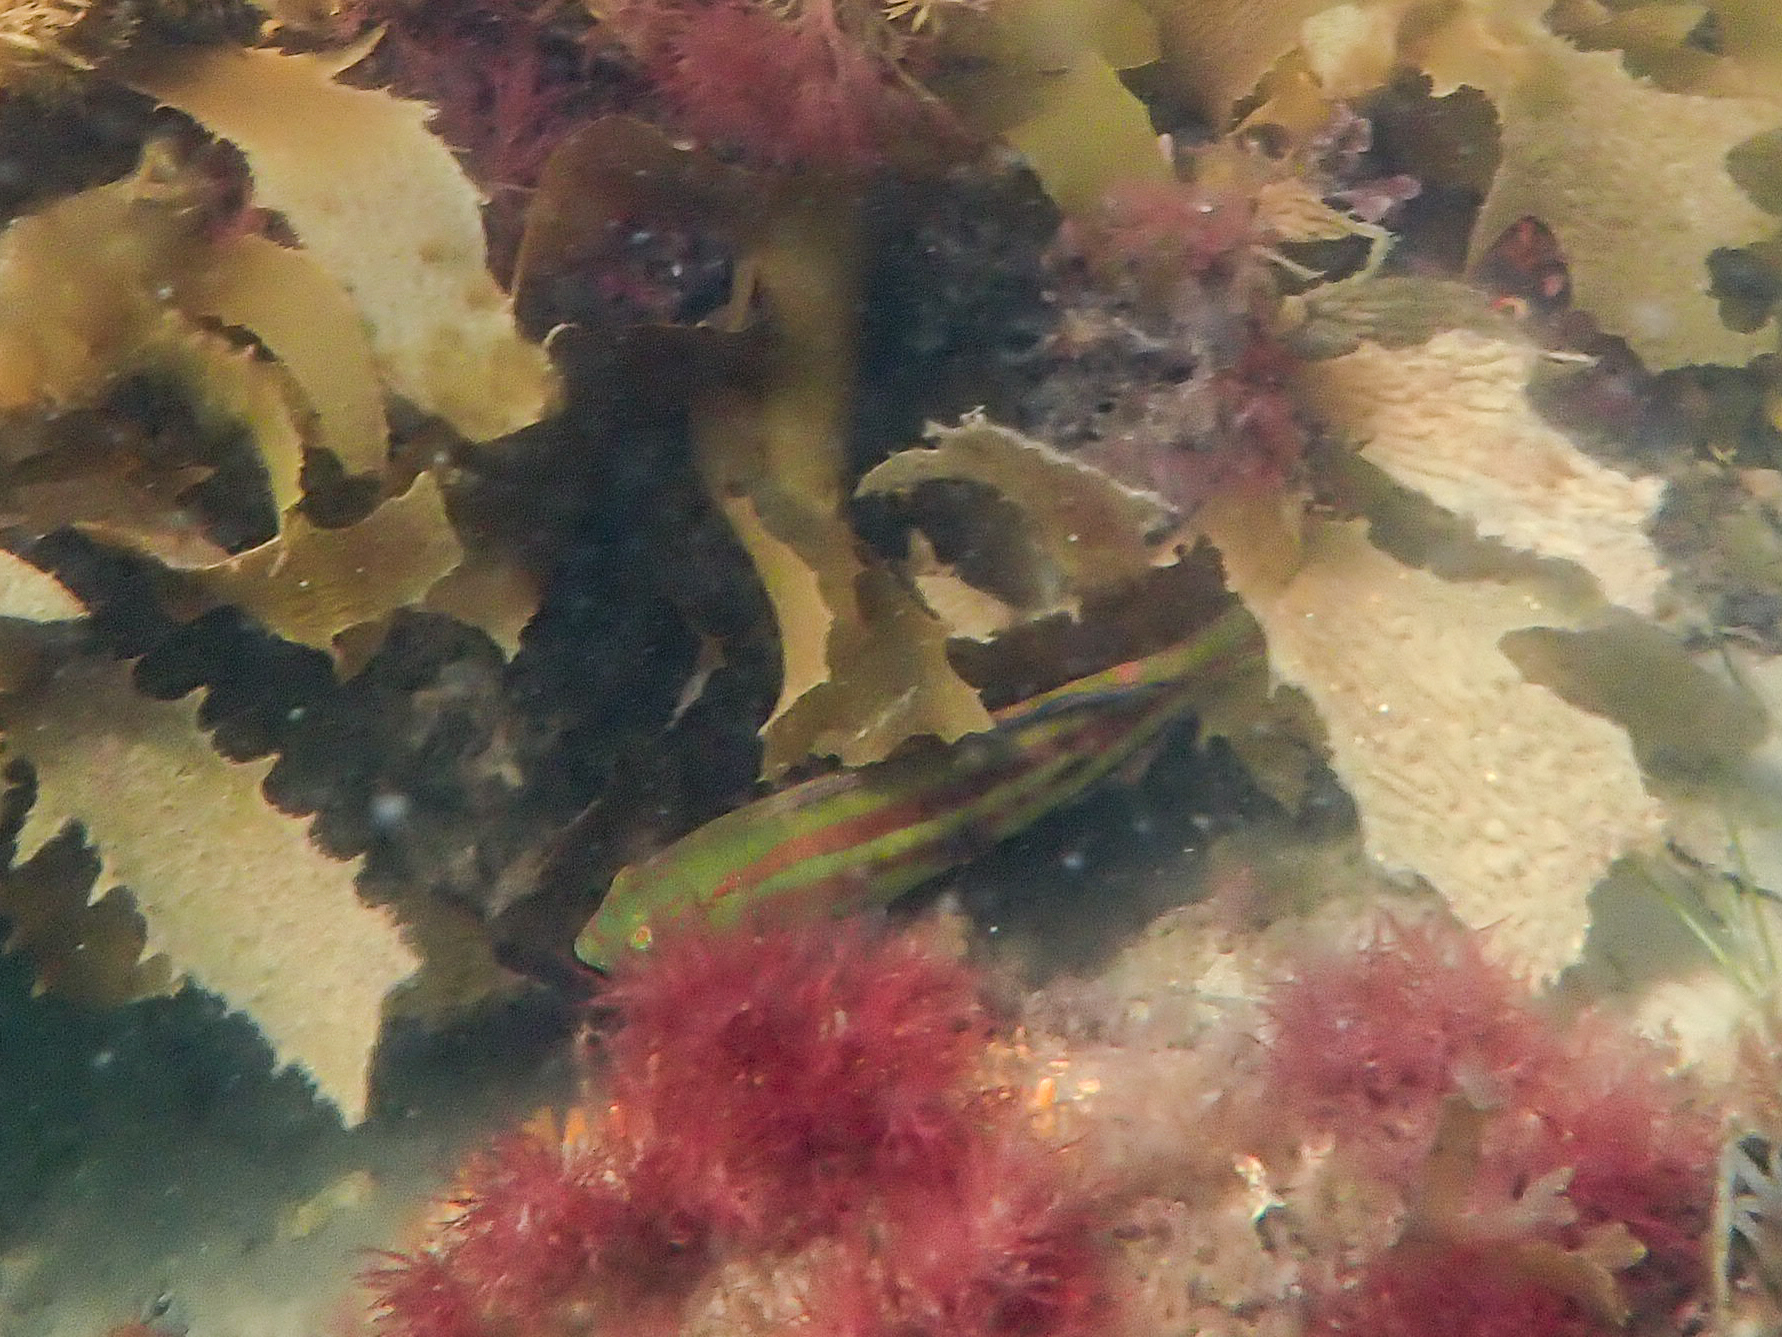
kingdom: Animalia
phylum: Chordata
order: Perciformes
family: Labridae
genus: Pictilabrus
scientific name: Pictilabrus laticlavius
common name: Patrician wrasse
